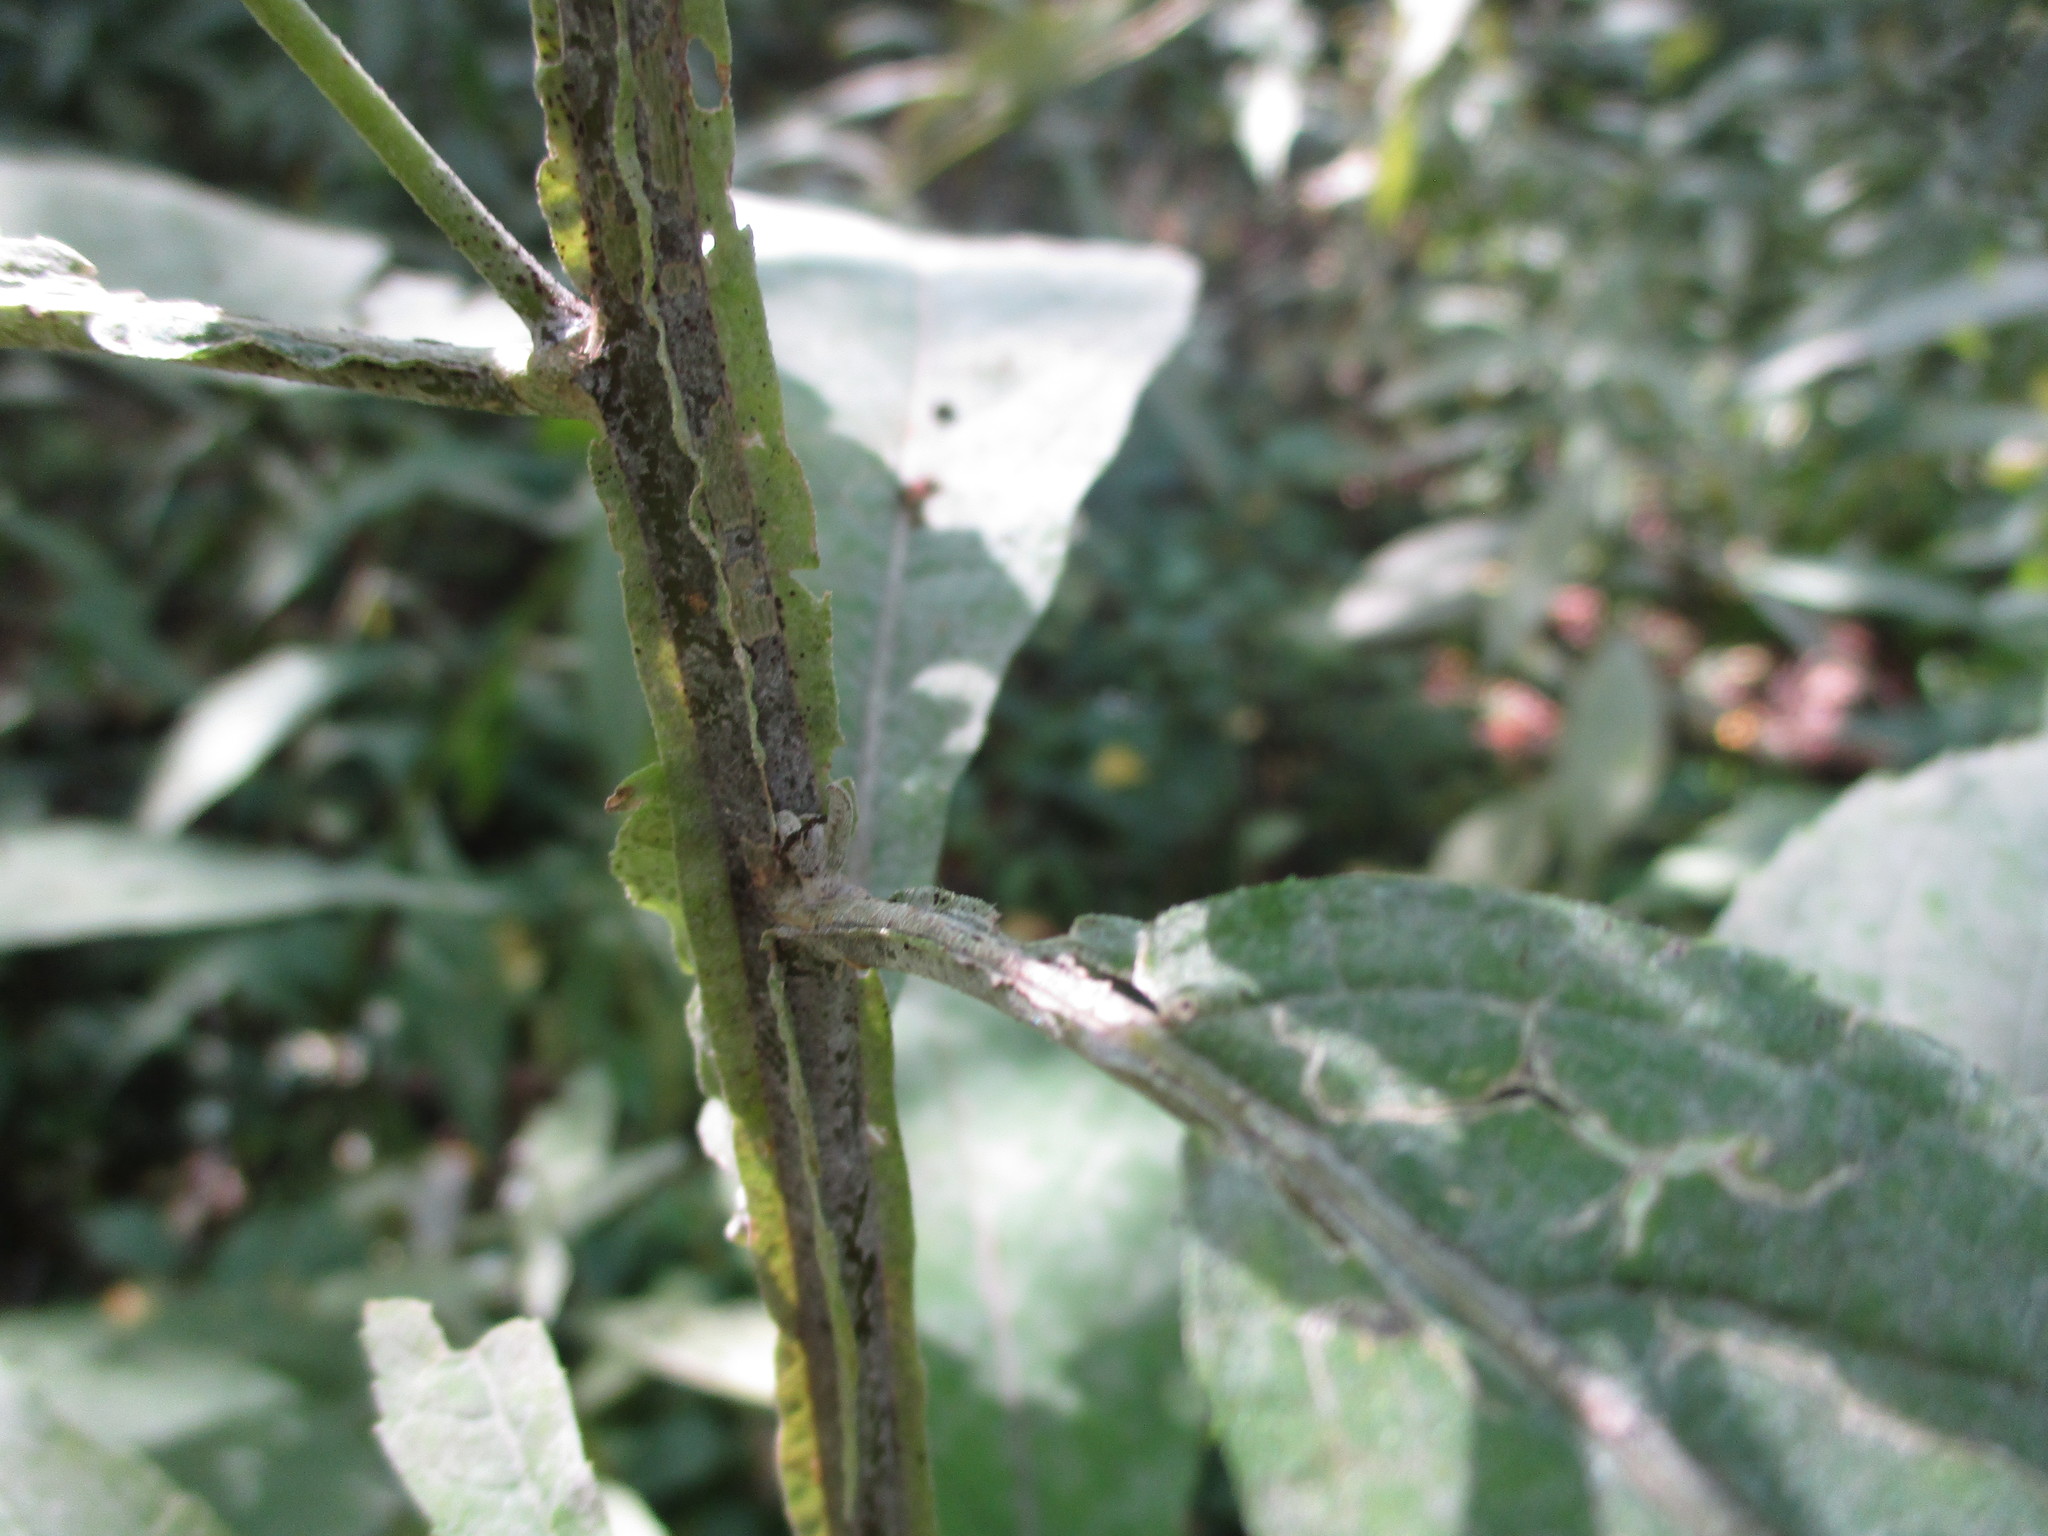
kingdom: Plantae
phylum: Tracheophyta
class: Magnoliopsida
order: Asterales
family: Asteraceae
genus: Verbesina
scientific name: Verbesina alternifolia
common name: Wingstem
